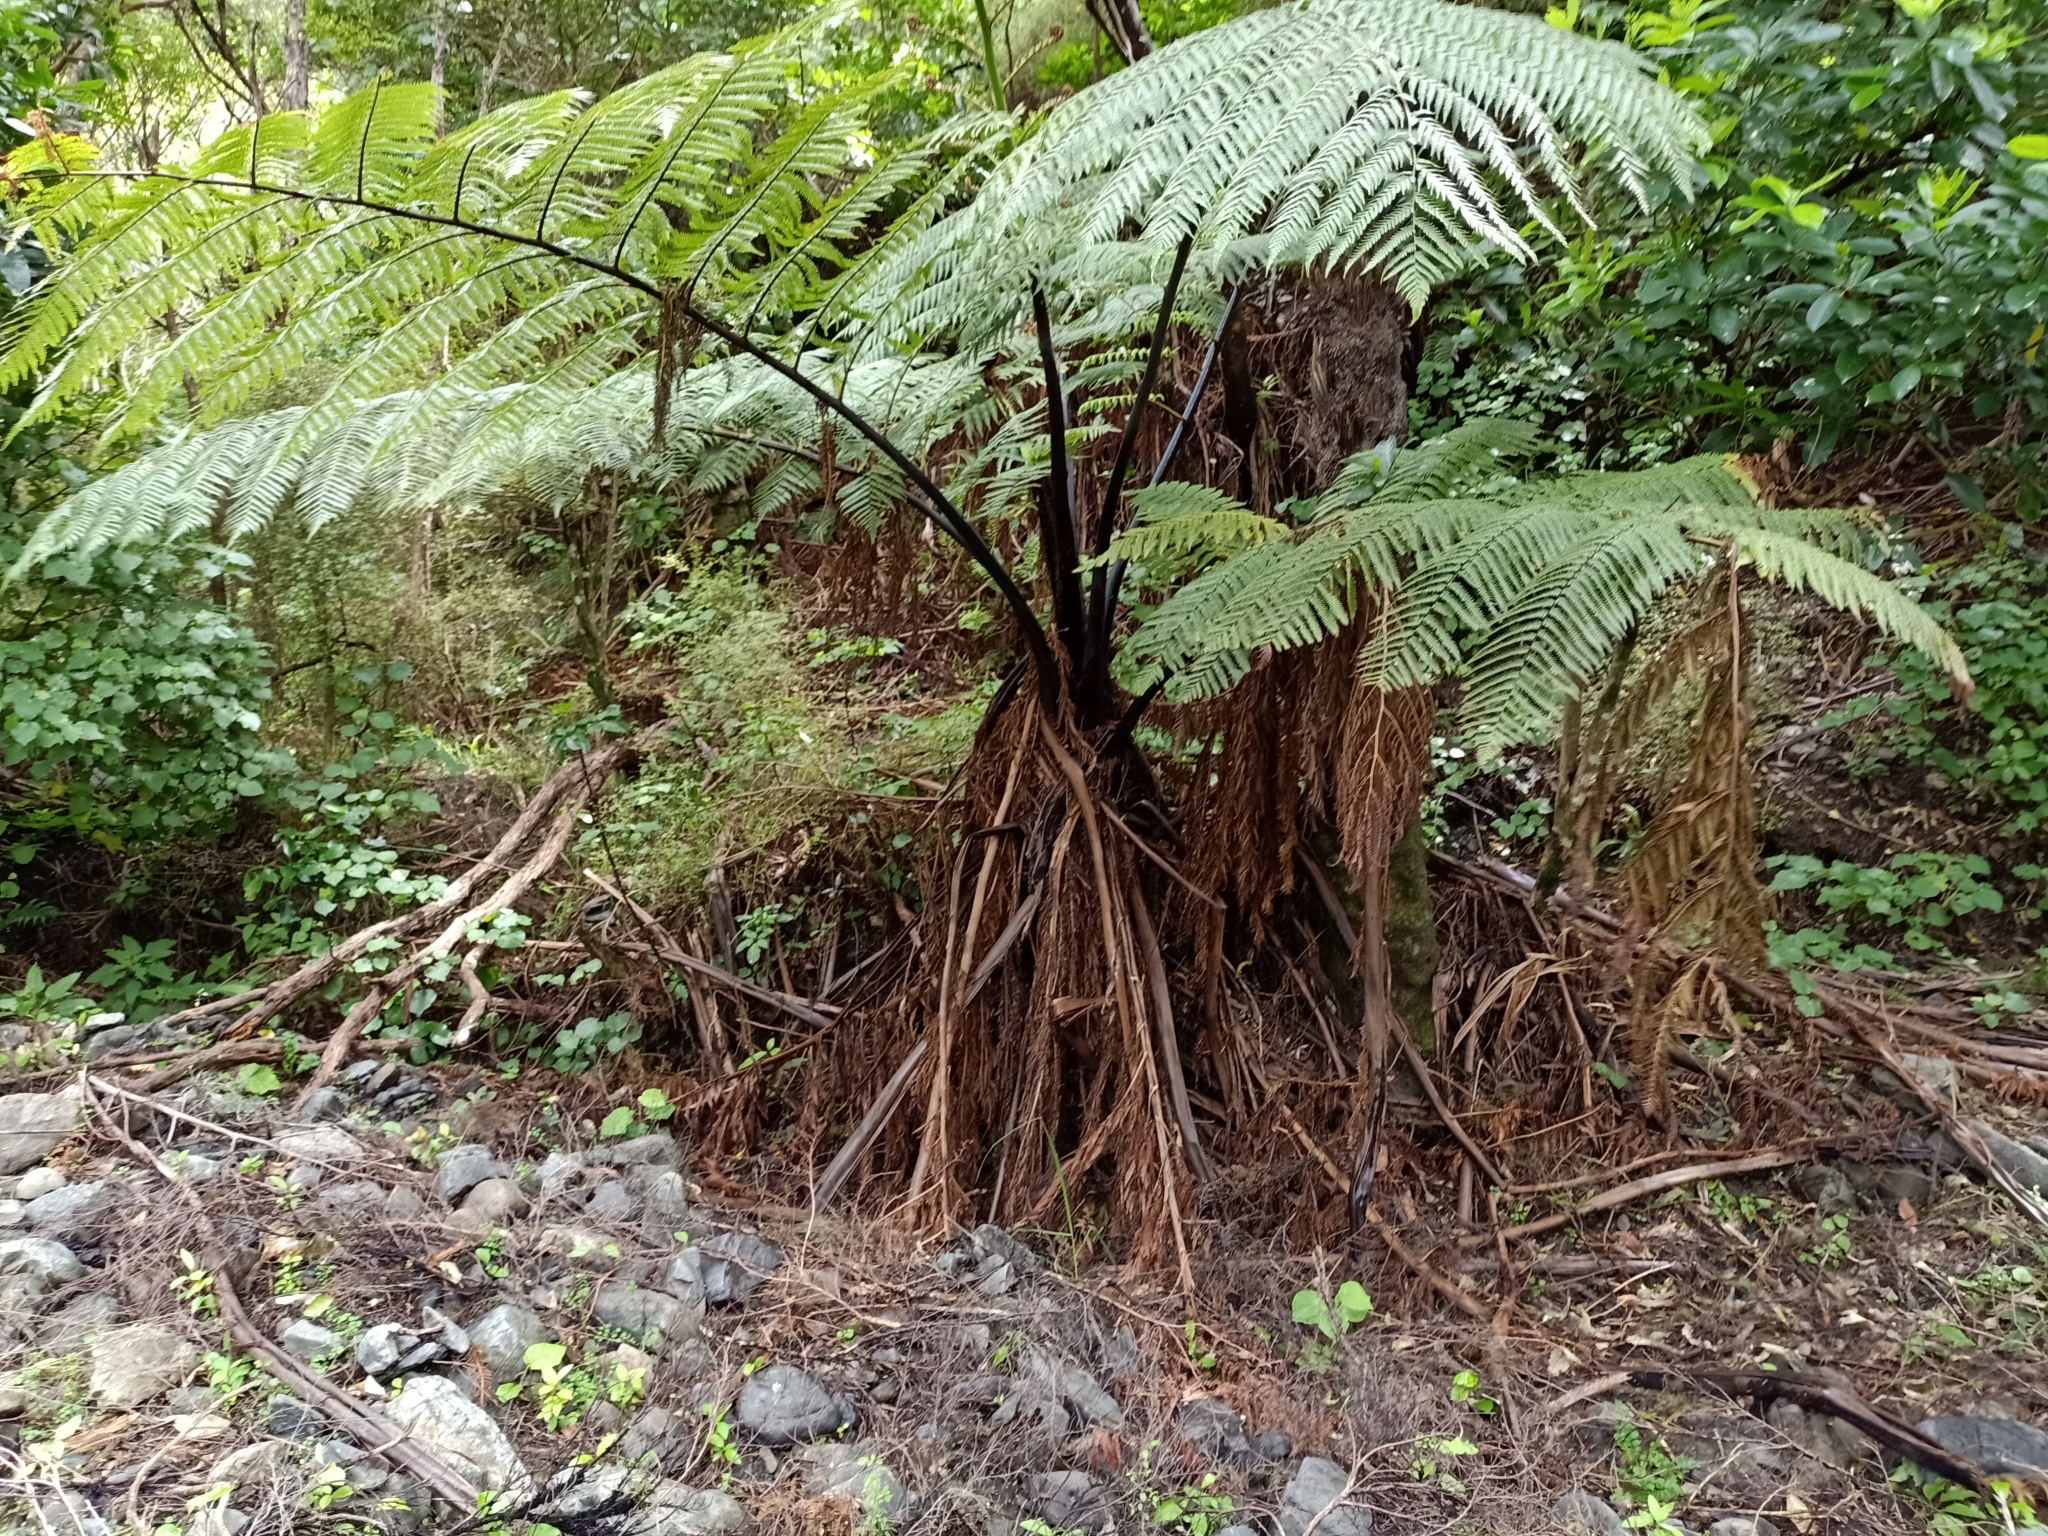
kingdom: Plantae
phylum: Tracheophyta
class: Polypodiopsida
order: Cyatheales
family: Cyatheaceae
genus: Sphaeropteris
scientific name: Sphaeropteris medullaris
